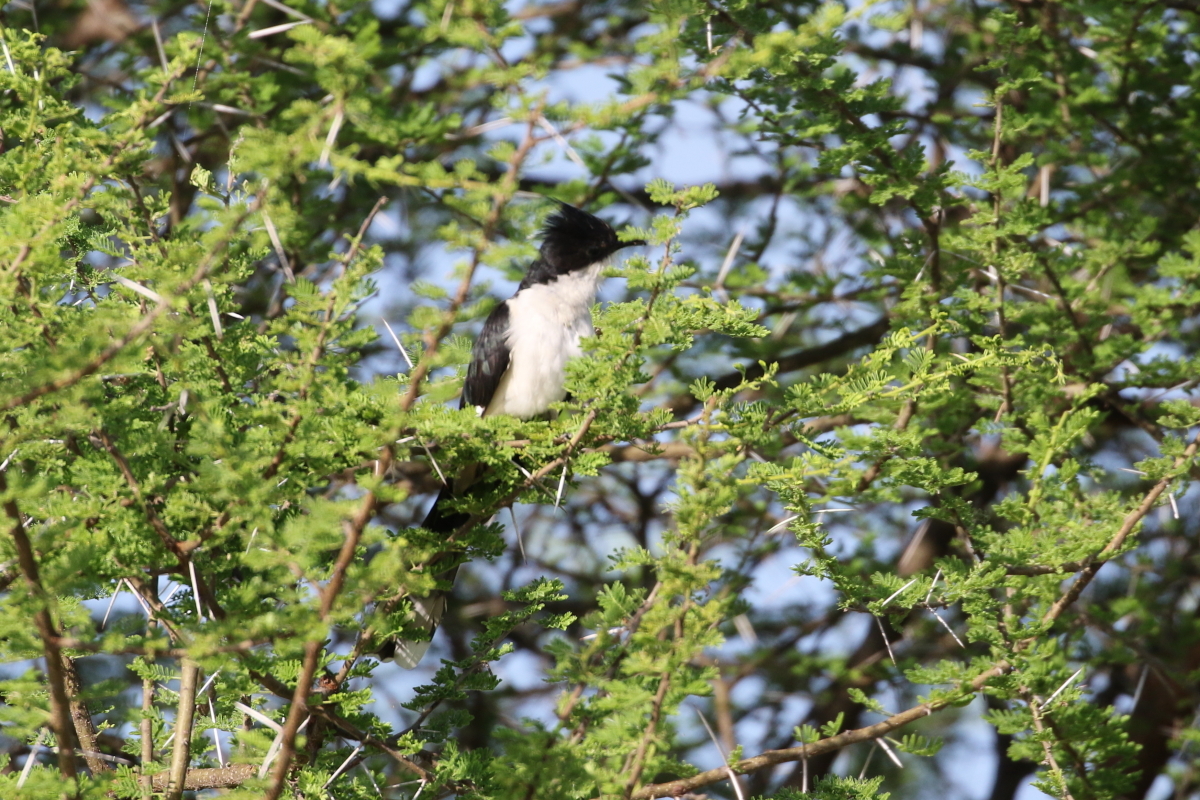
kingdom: Animalia
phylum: Chordata
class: Aves
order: Cuculiformes
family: Cuculidae
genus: Clamator
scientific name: Clamator jacobinus
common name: Jacobin cuckoo
